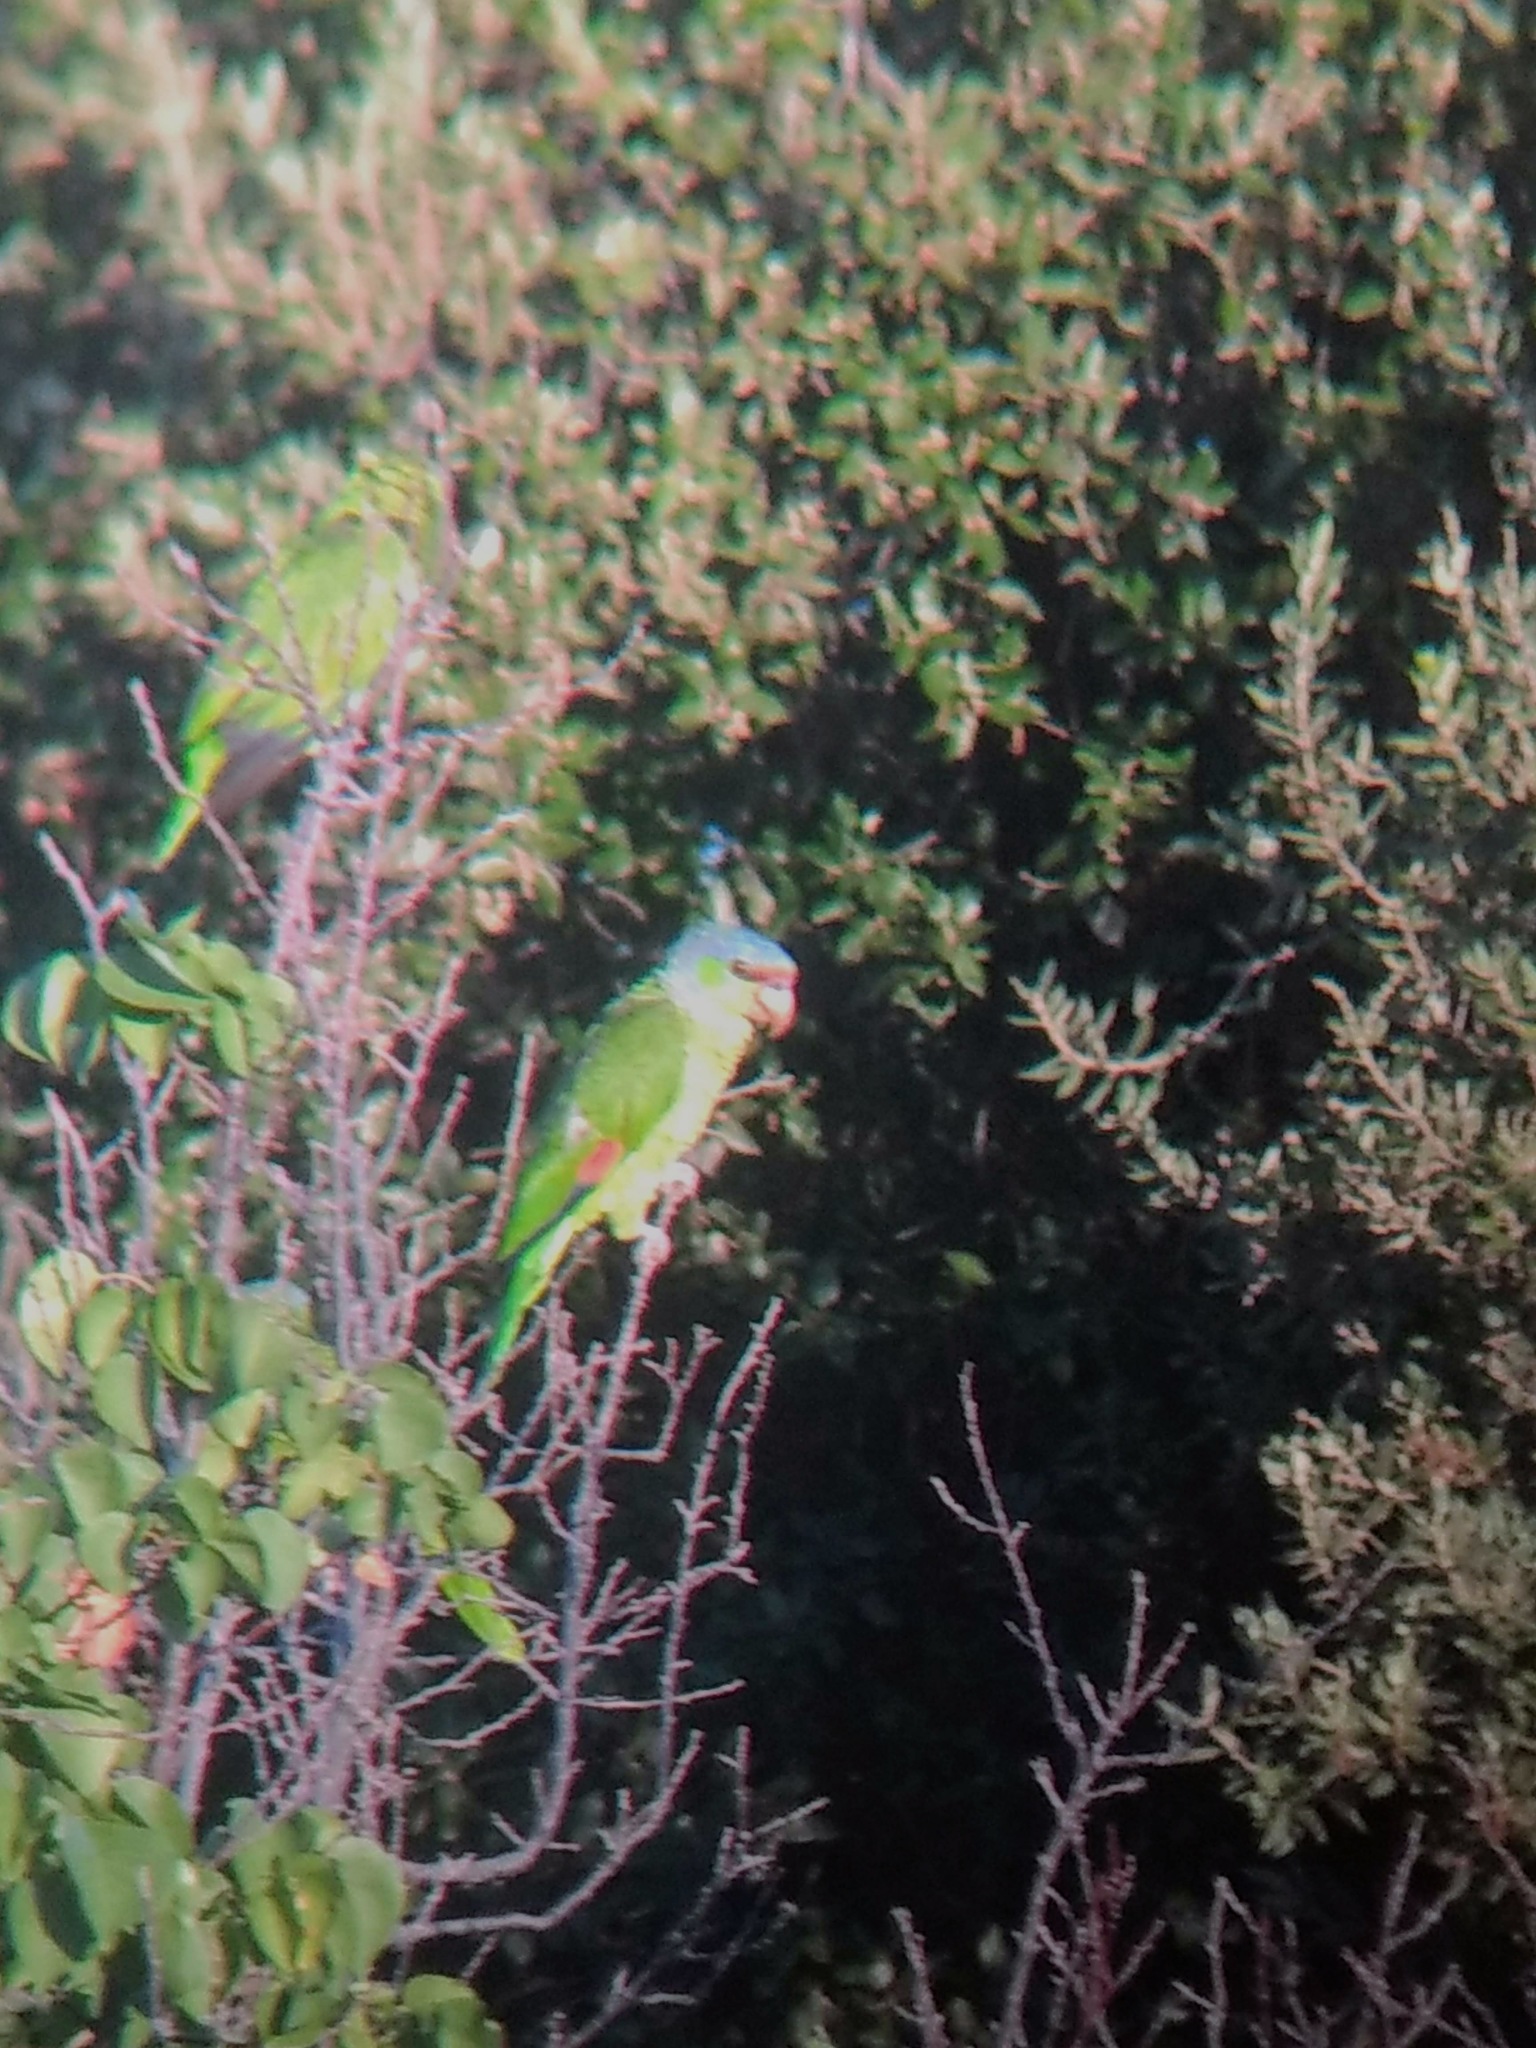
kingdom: Animalia
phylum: Chordata
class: Aves
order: Psittaciformes
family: Psittacidae
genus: Amazona
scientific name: Amazona finschi
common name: Lilac-crowned amazon
